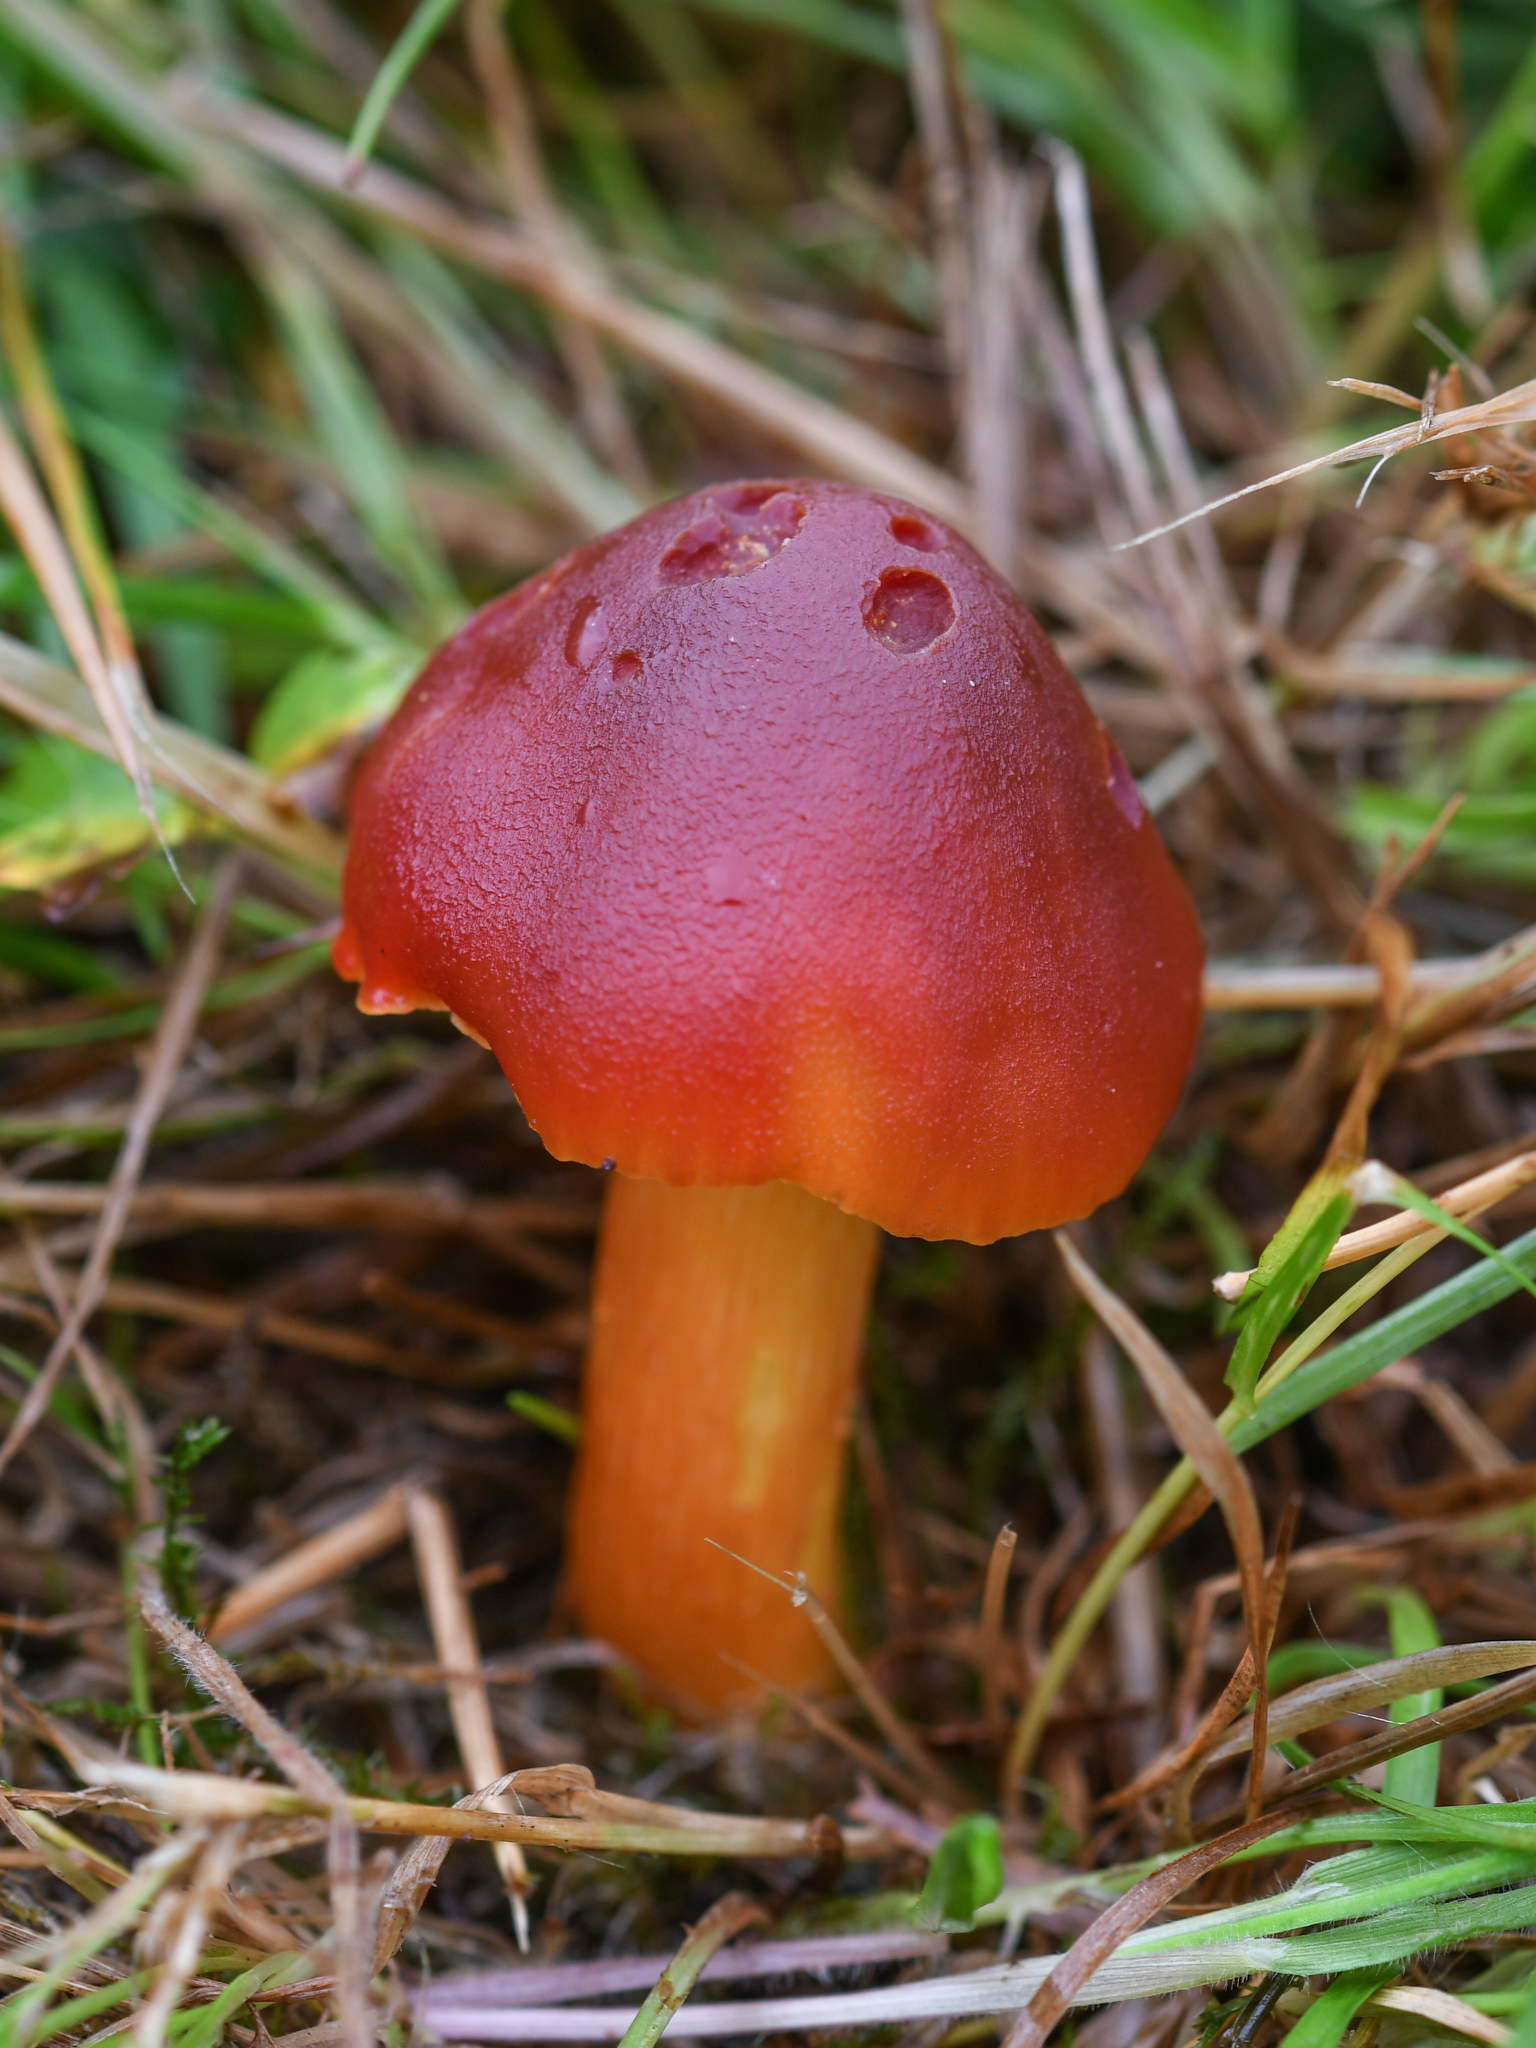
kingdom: Fungi
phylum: Basidiomycota
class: Agaricomycetes
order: Agaricales
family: Hygrophoraceae
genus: Hygrocybe
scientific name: Hygrocybe punicea
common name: Crimson waxcap
